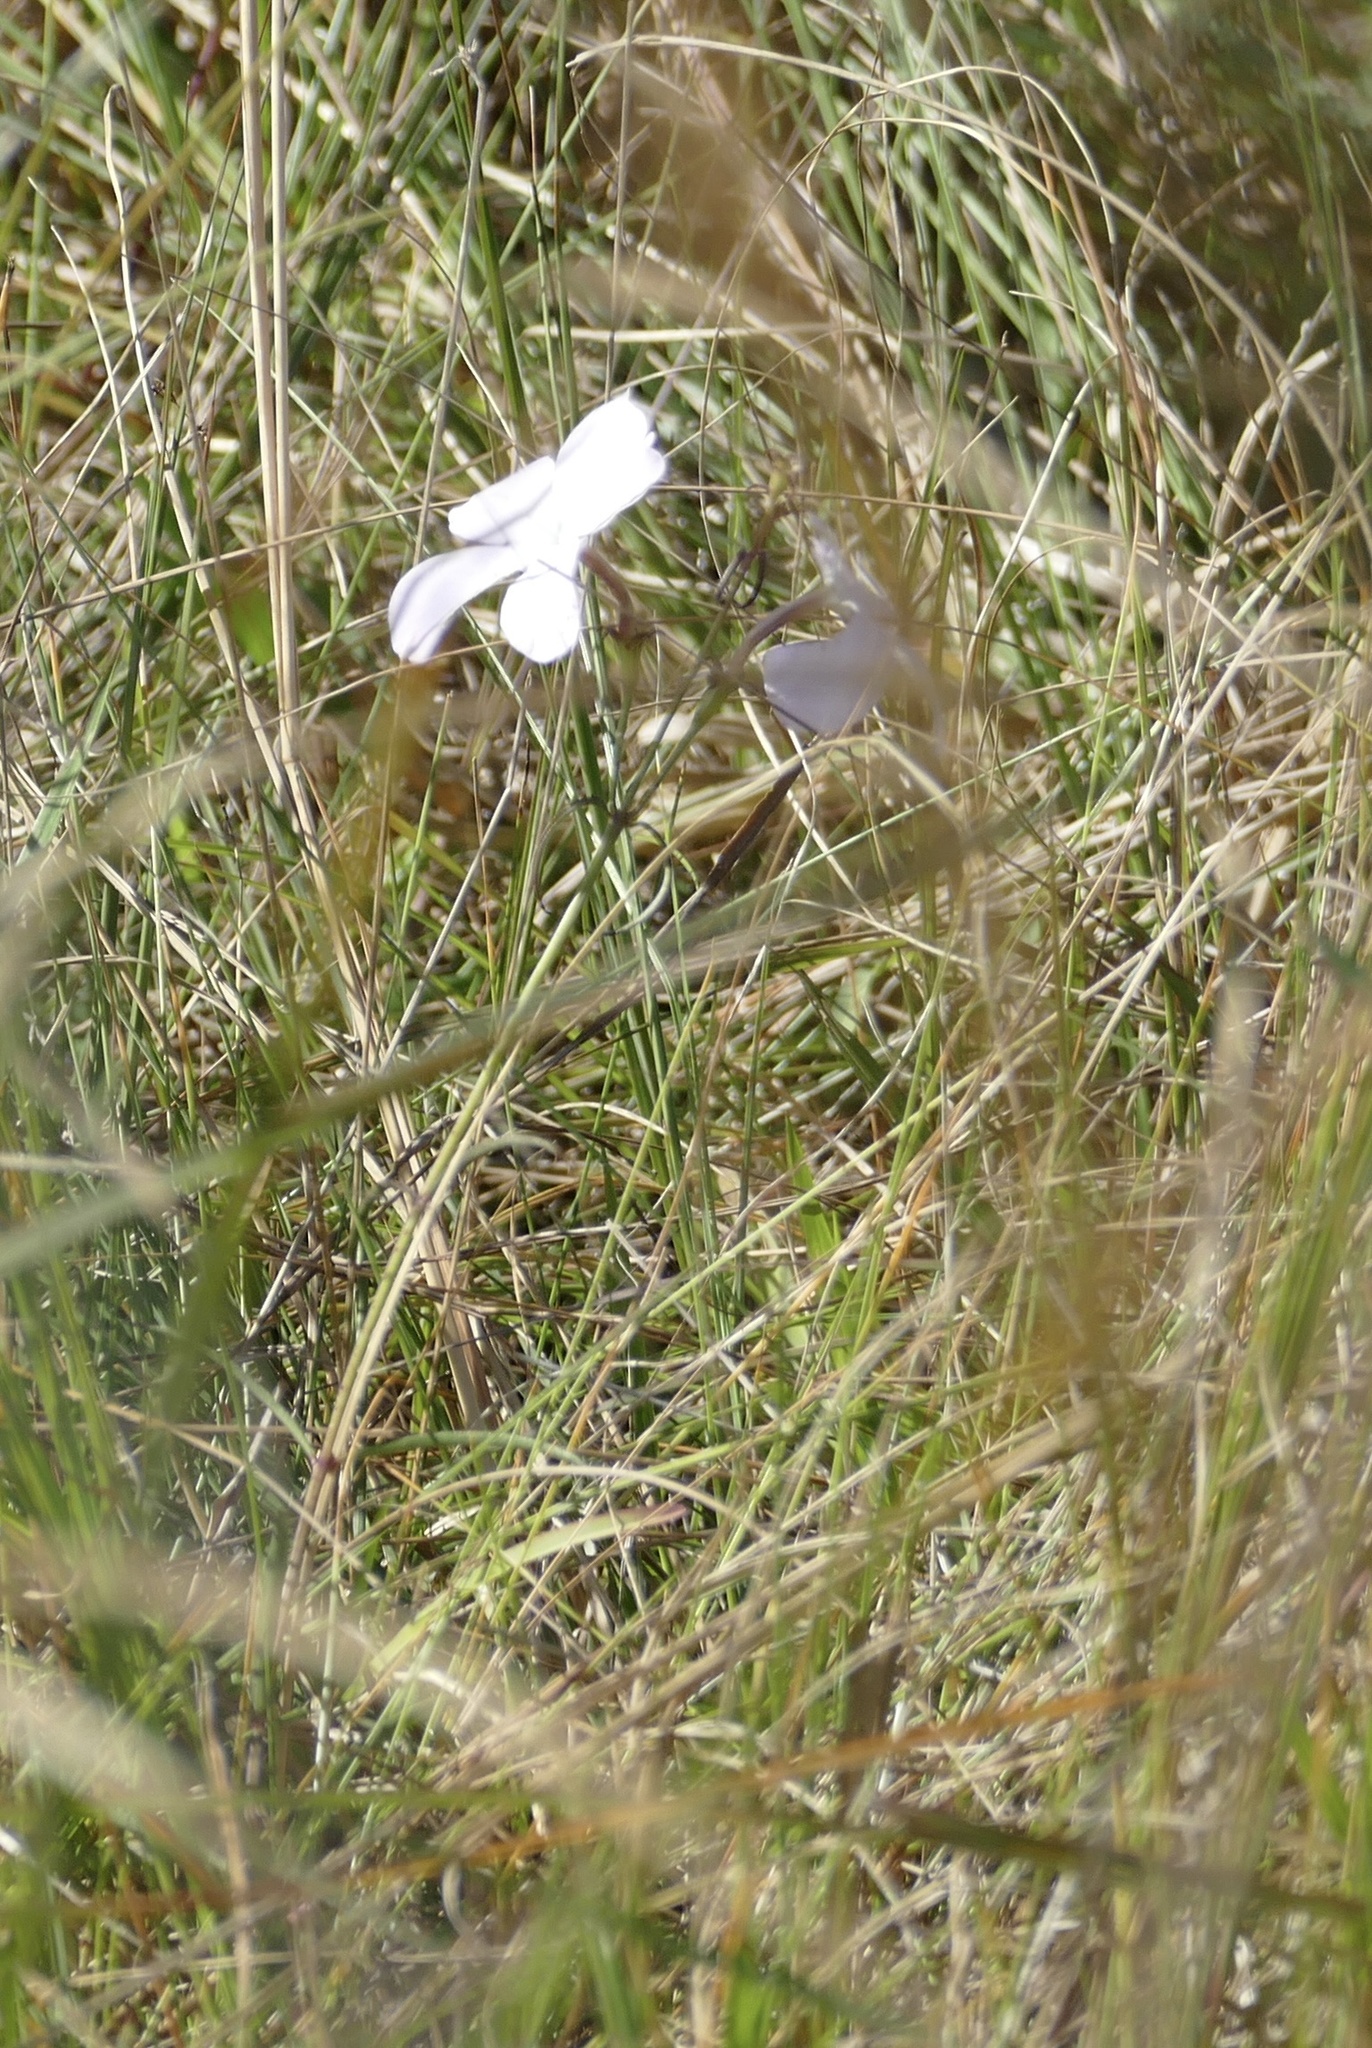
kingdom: Plantae
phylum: Tracheophyta
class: Magnoliopsida
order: Lamiales
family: Orobanchaceae
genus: Cycnium
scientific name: Cycnium tubulosum
